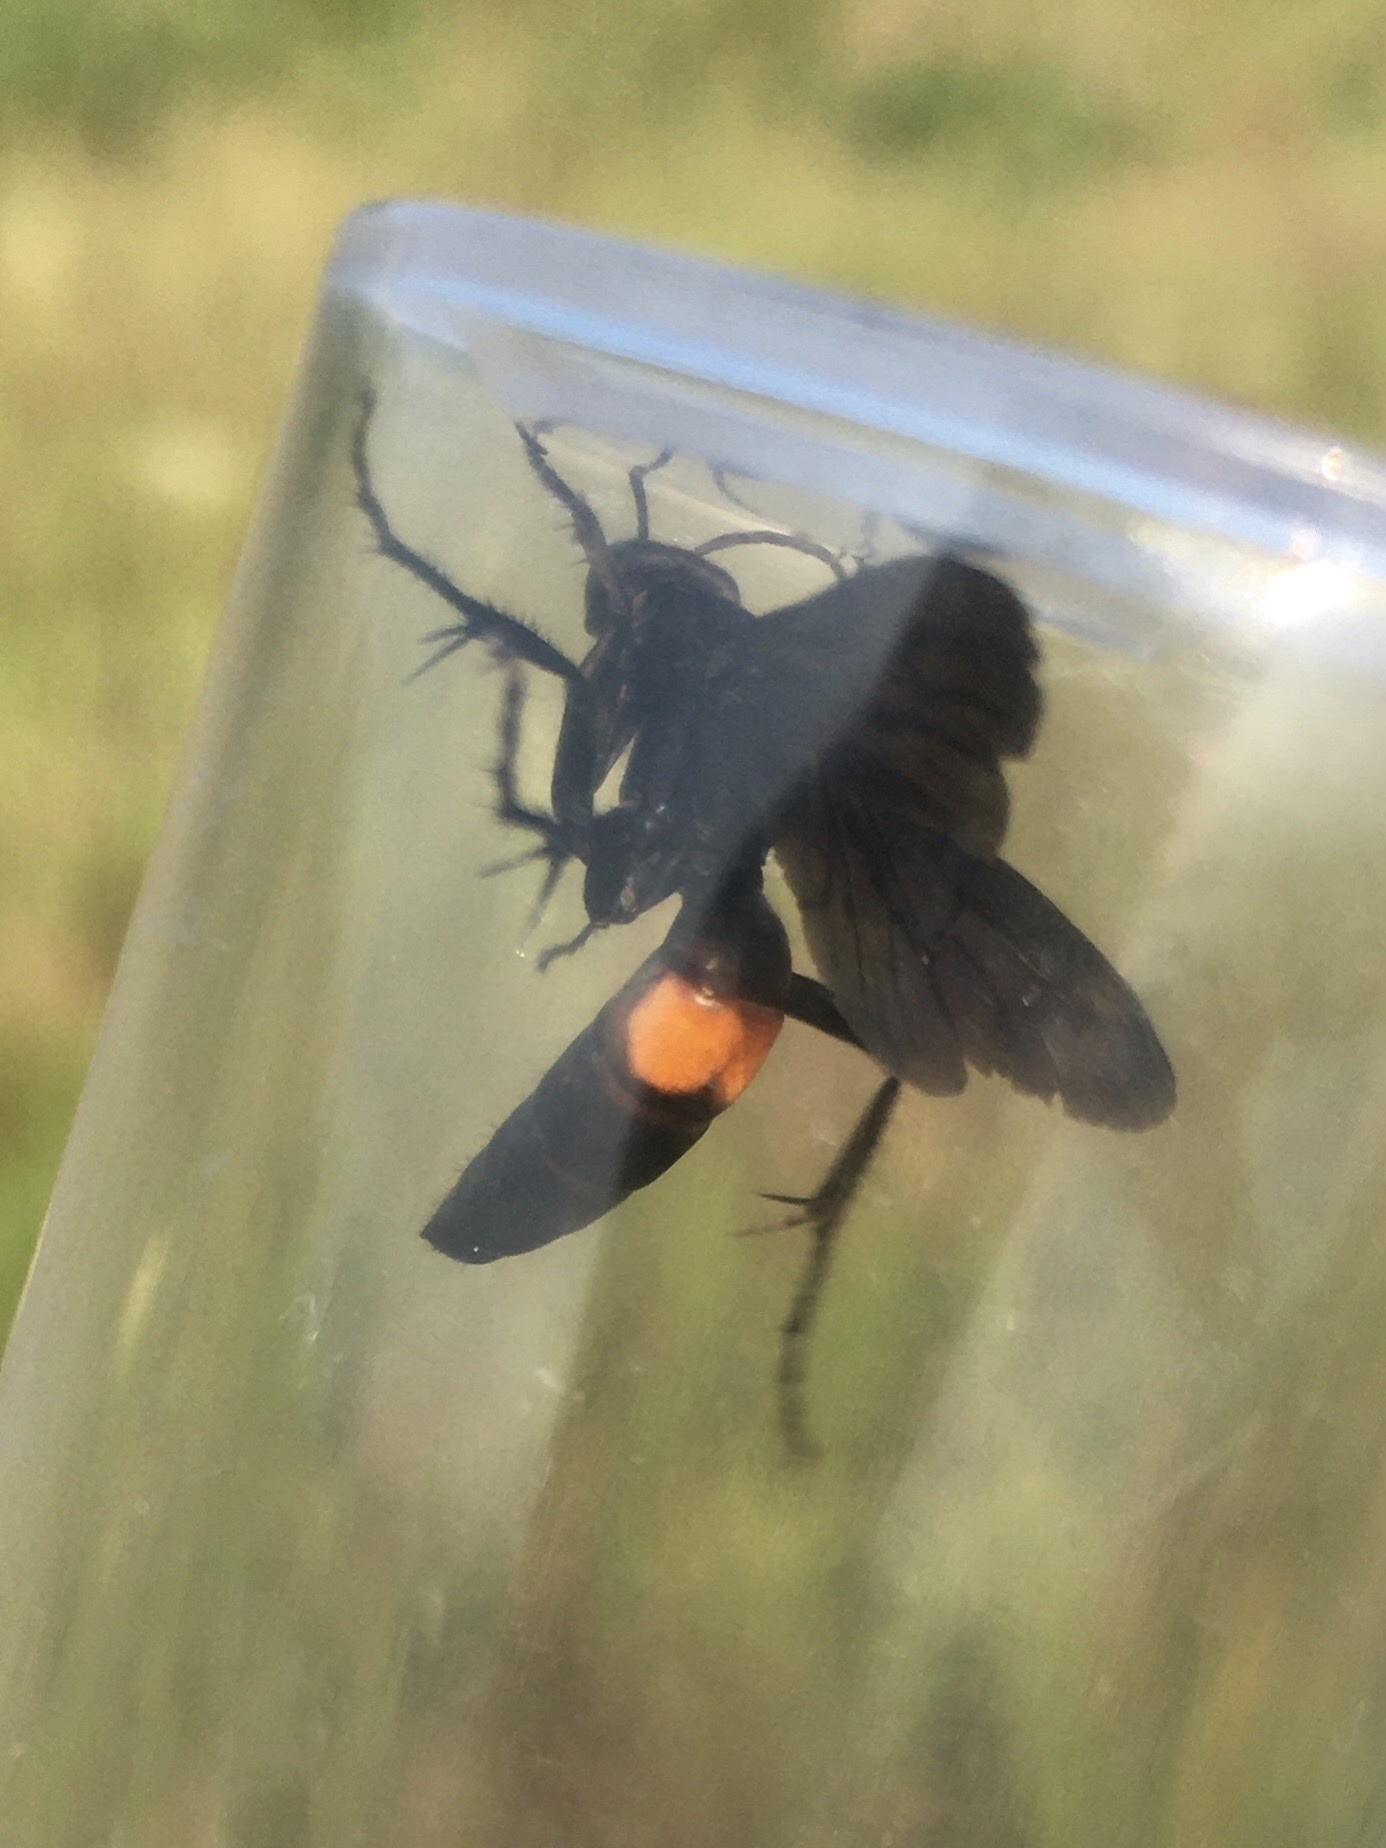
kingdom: Animalia
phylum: Arthropoda
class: Insecta
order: Hymenoptera
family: Pompilidae
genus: Anoplius
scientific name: Anoplius semicinctus
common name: Half-belted blue-black spider wasp
